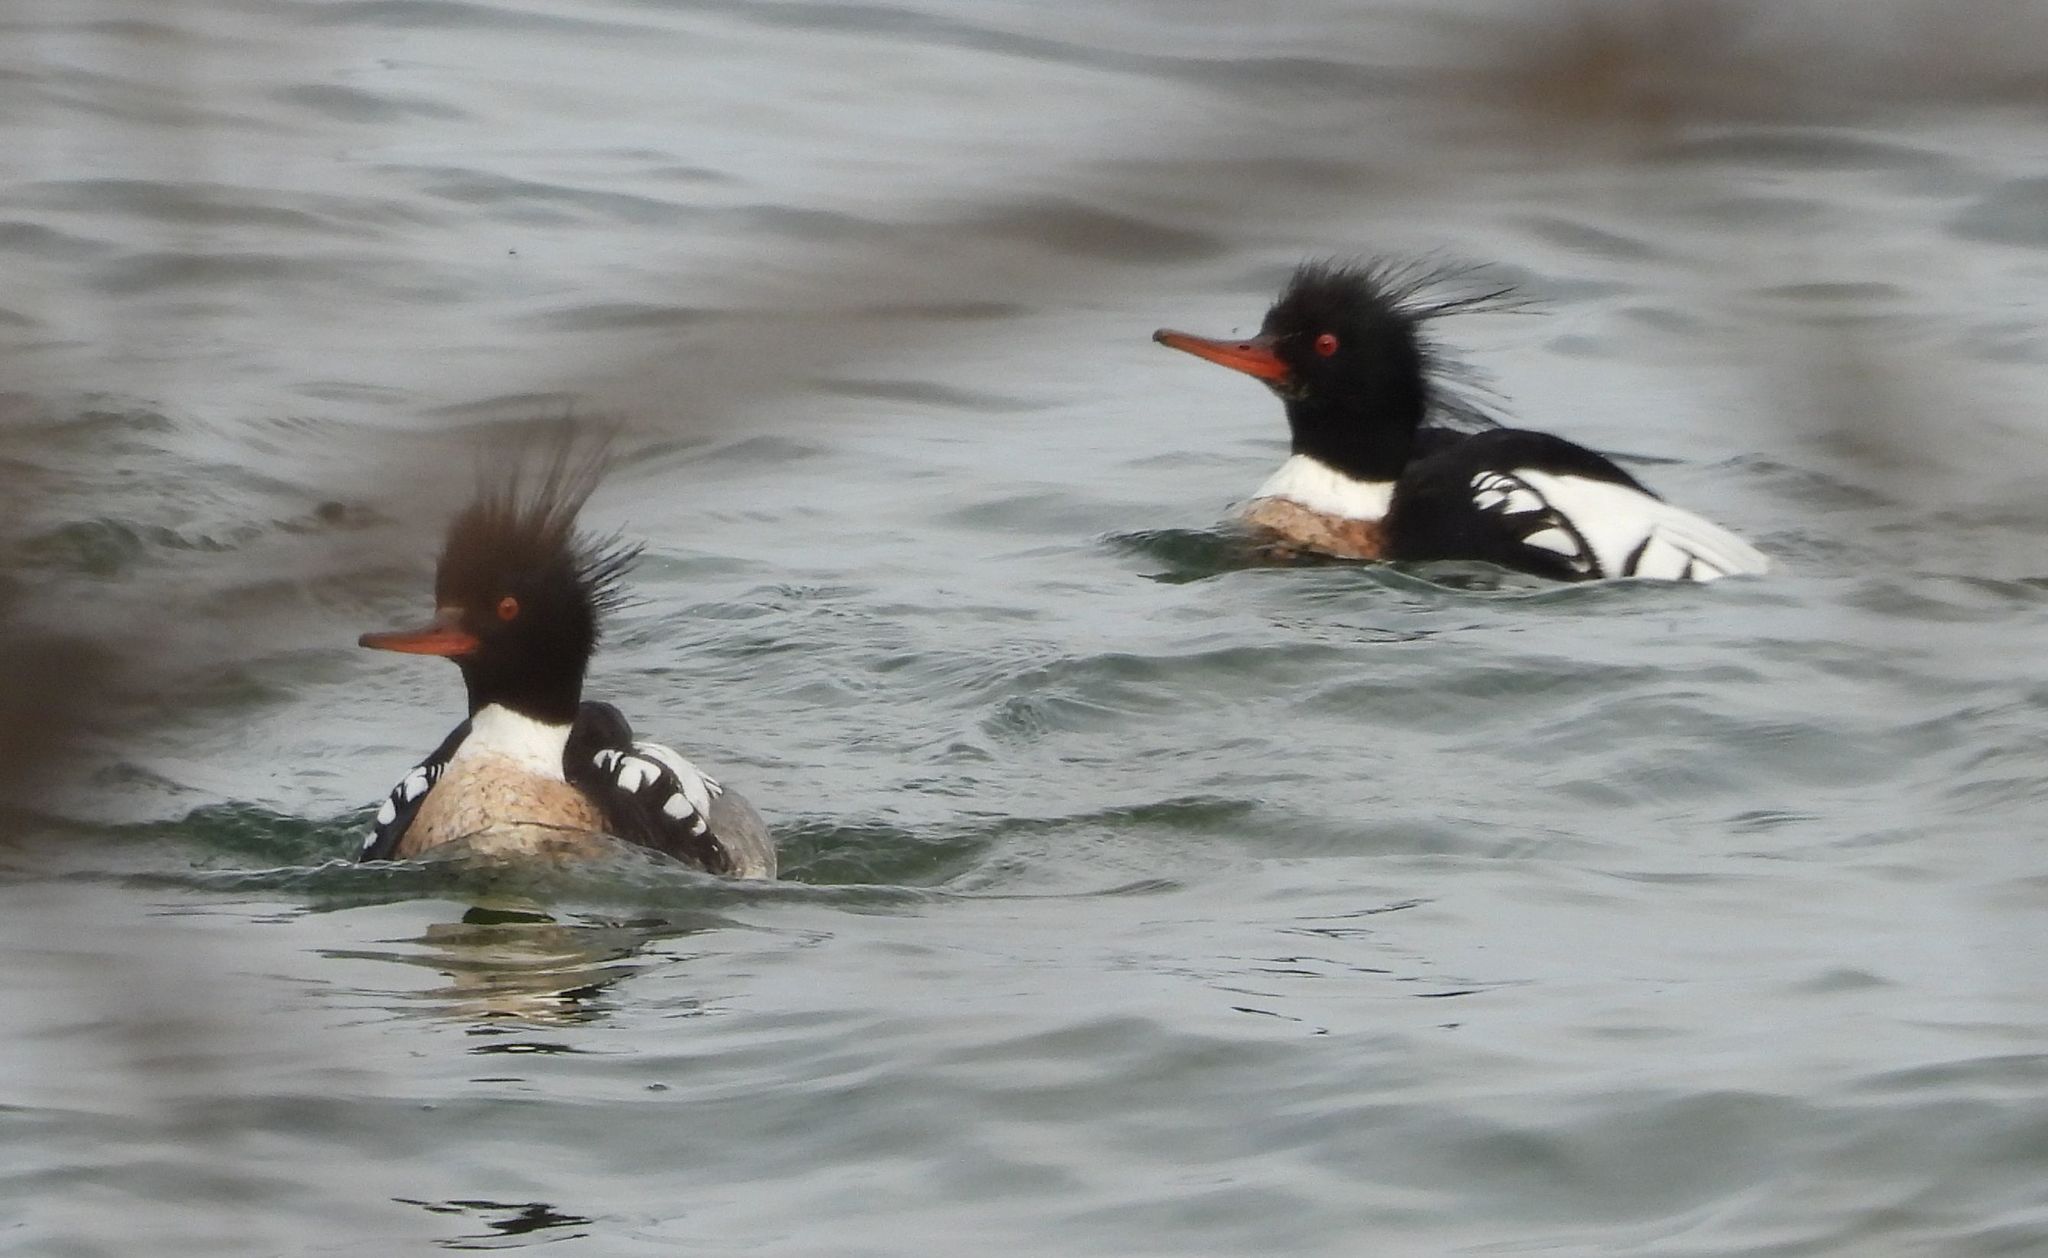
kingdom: Animalia
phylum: Chordata
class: Aves
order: Anseriformes
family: Anatidae
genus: Mergus
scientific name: Mergus serrator
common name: Red-breasted merganser
